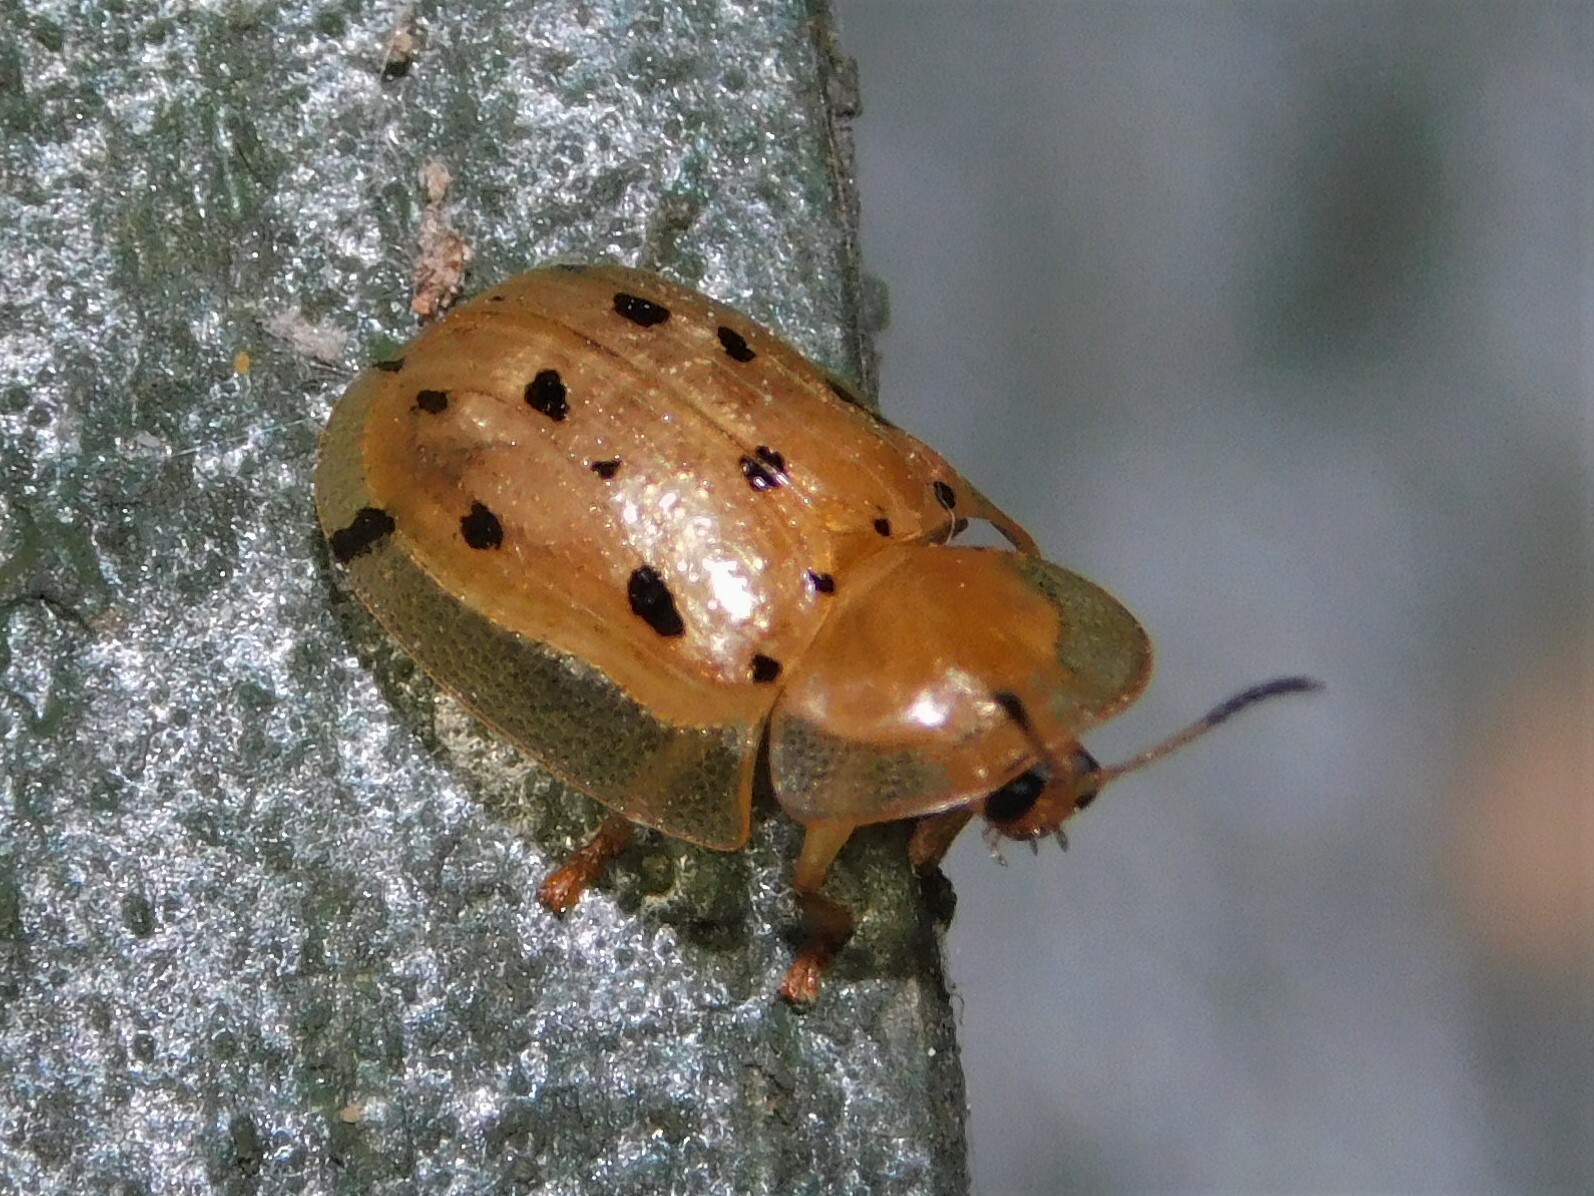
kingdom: Animalia
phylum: Arthropoda
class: Insecta
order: Coleoptera
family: Chrysomelidae
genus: Aspidimorpha
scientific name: Aspidimorpha nigromaculata
